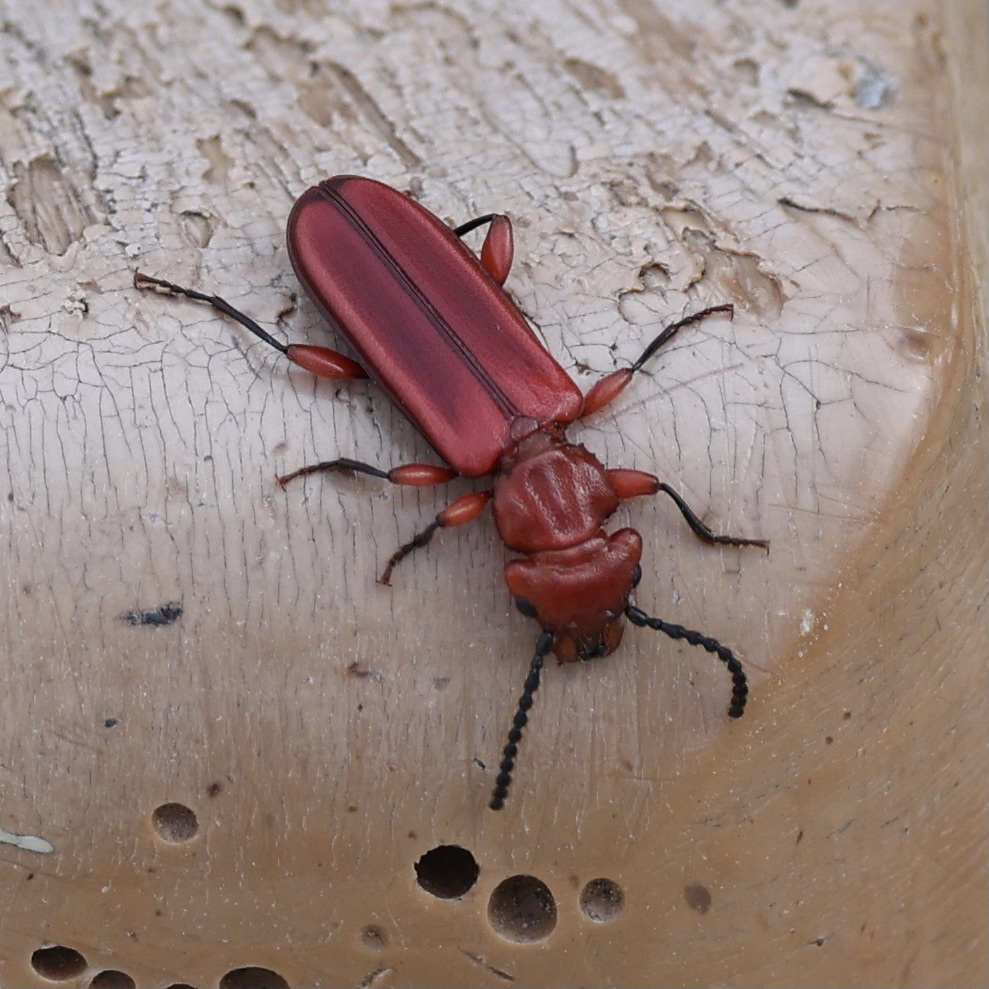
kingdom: Animalia
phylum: Arthropoda
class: Insecta
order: Coleoptera
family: Cucujidae
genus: Cucujus
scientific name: Cucujus clavipes
